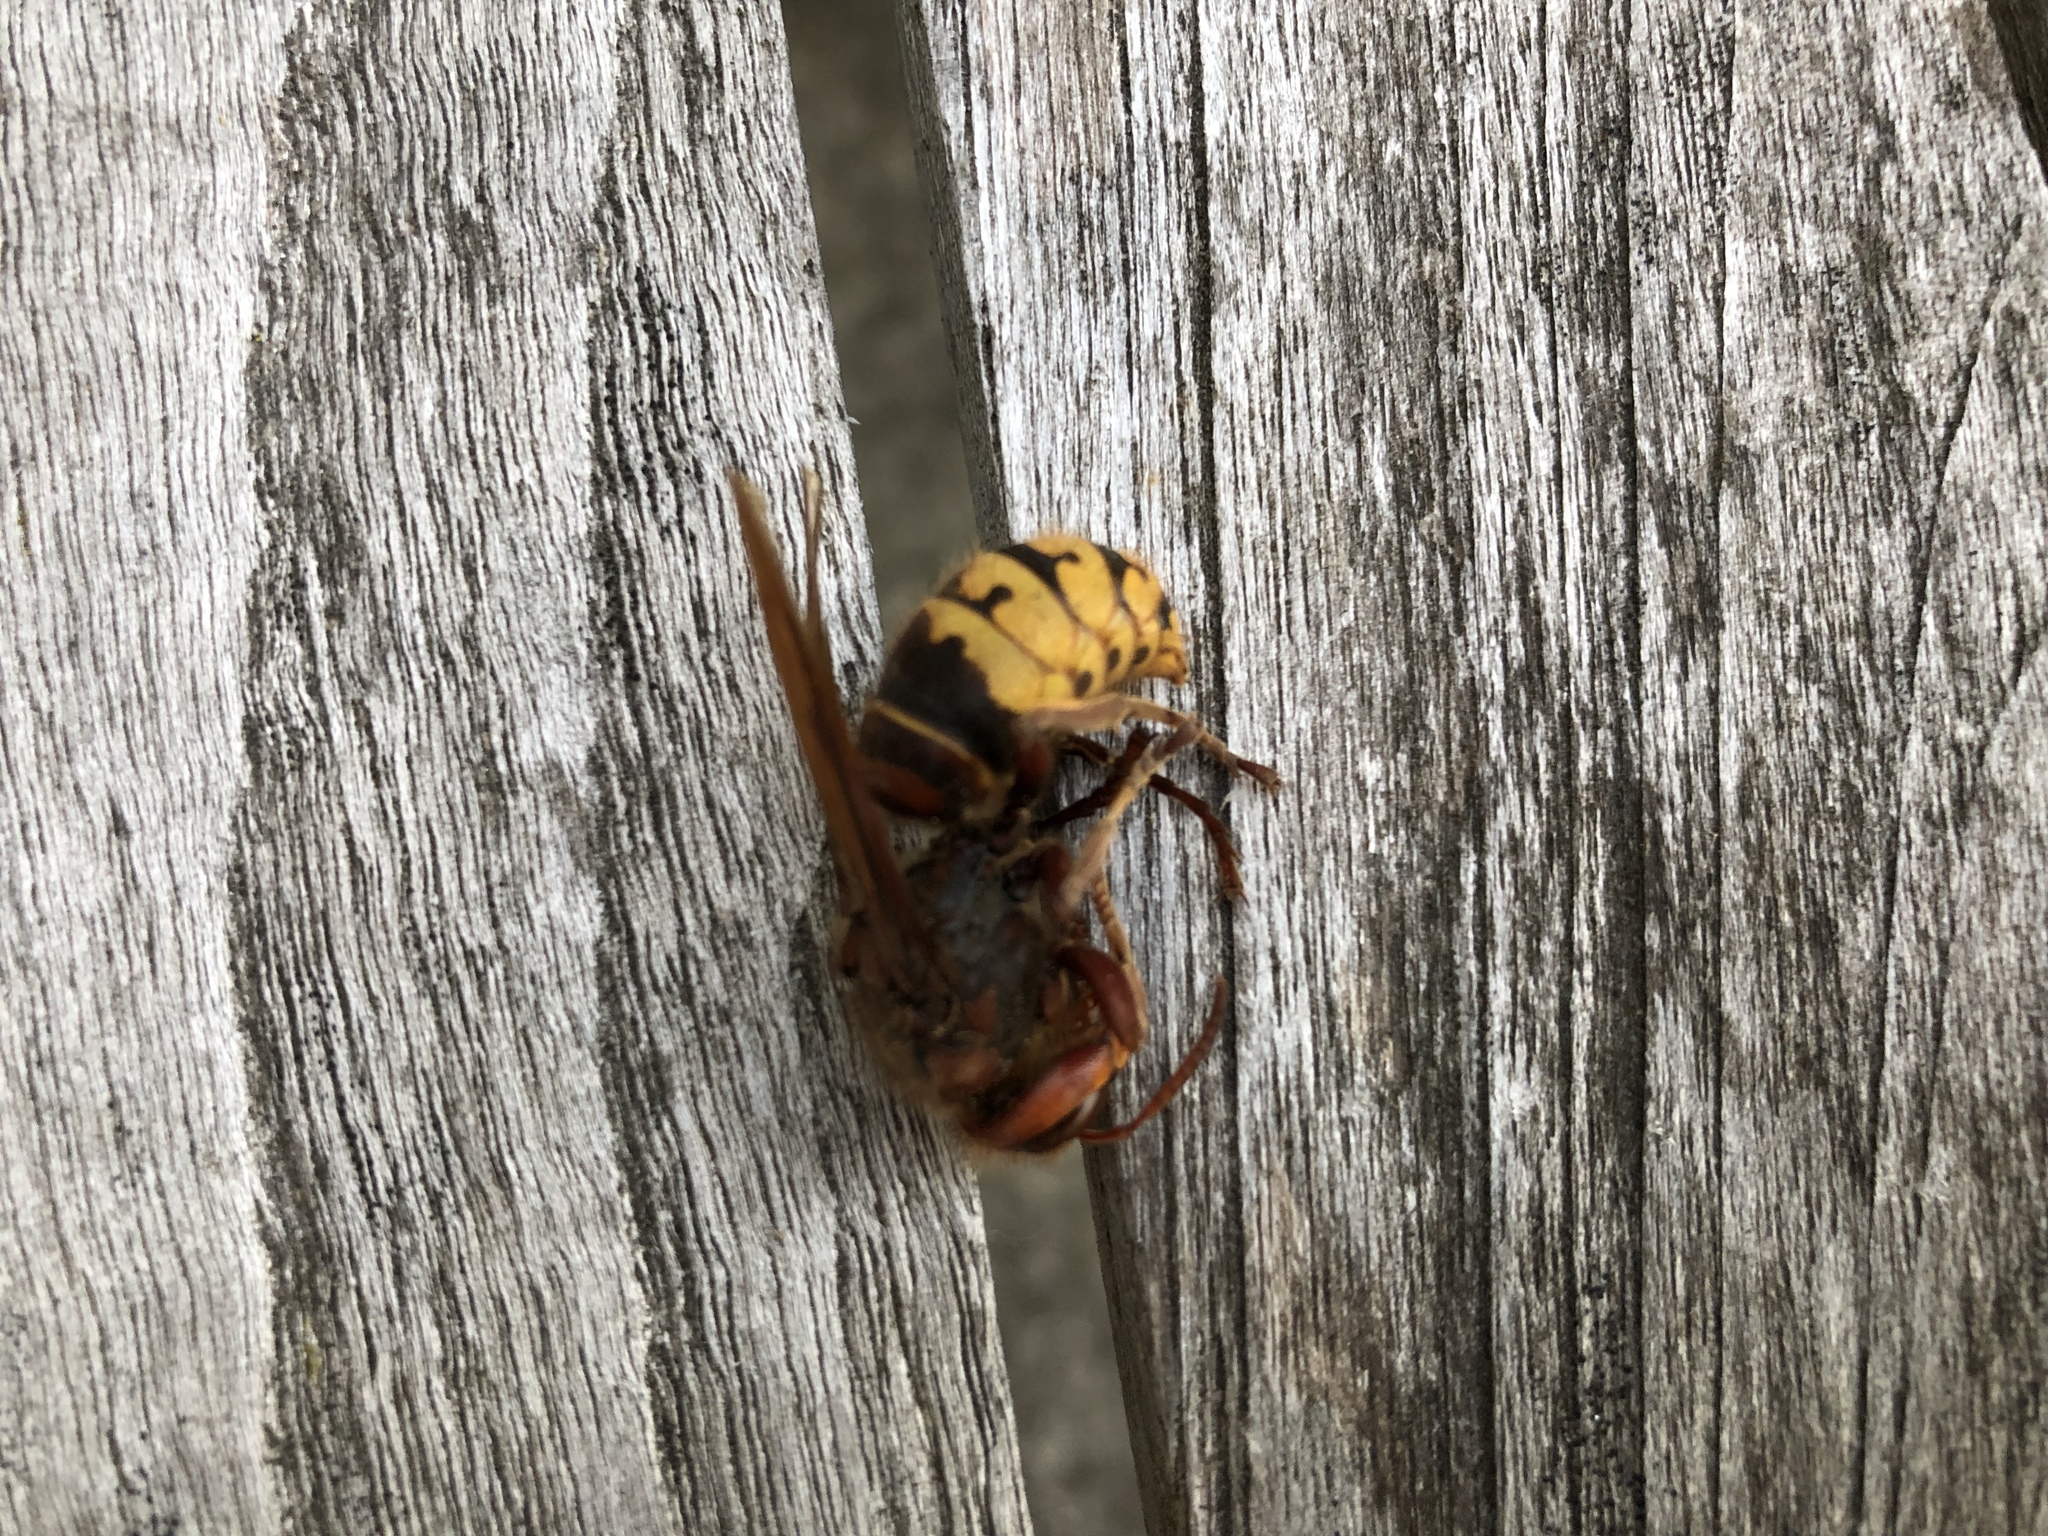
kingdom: Animalia
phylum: Arthropoda
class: Insecta
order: Hymenoptera
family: Vespidae
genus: Vespa
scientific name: Vespa crabro
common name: Hornet
